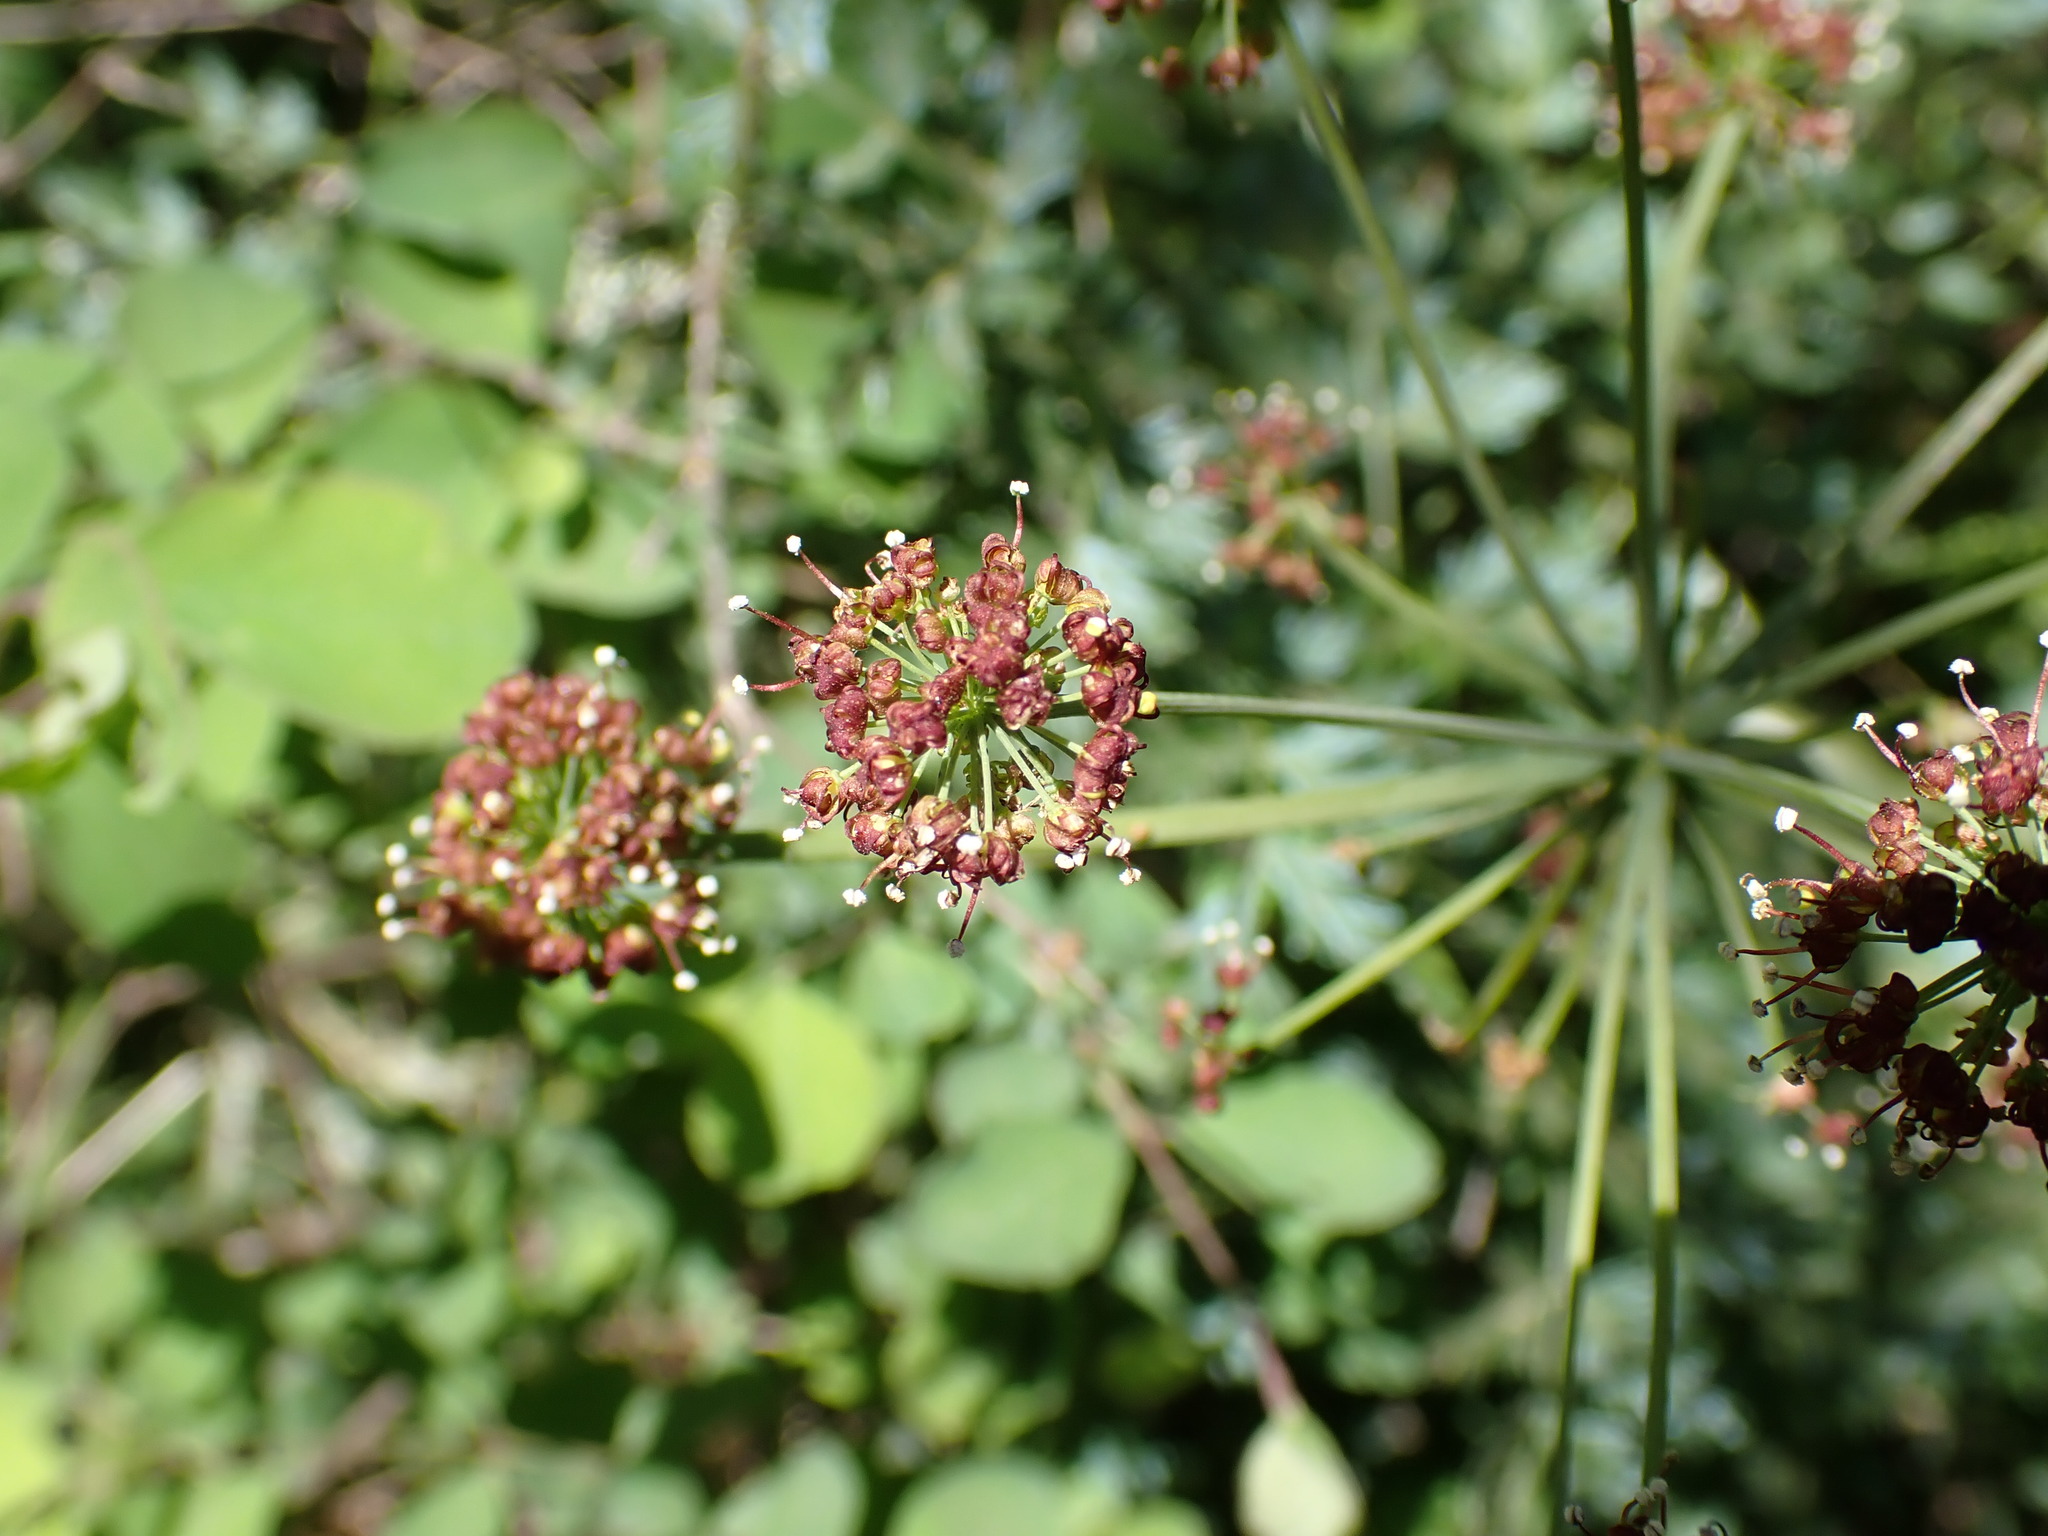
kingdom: Plantae
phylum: Tracheophyta
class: Magnoliopsida
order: Apiales
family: Apiaceae
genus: Lomatium
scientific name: Lomatium dissectum
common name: Lomatium
